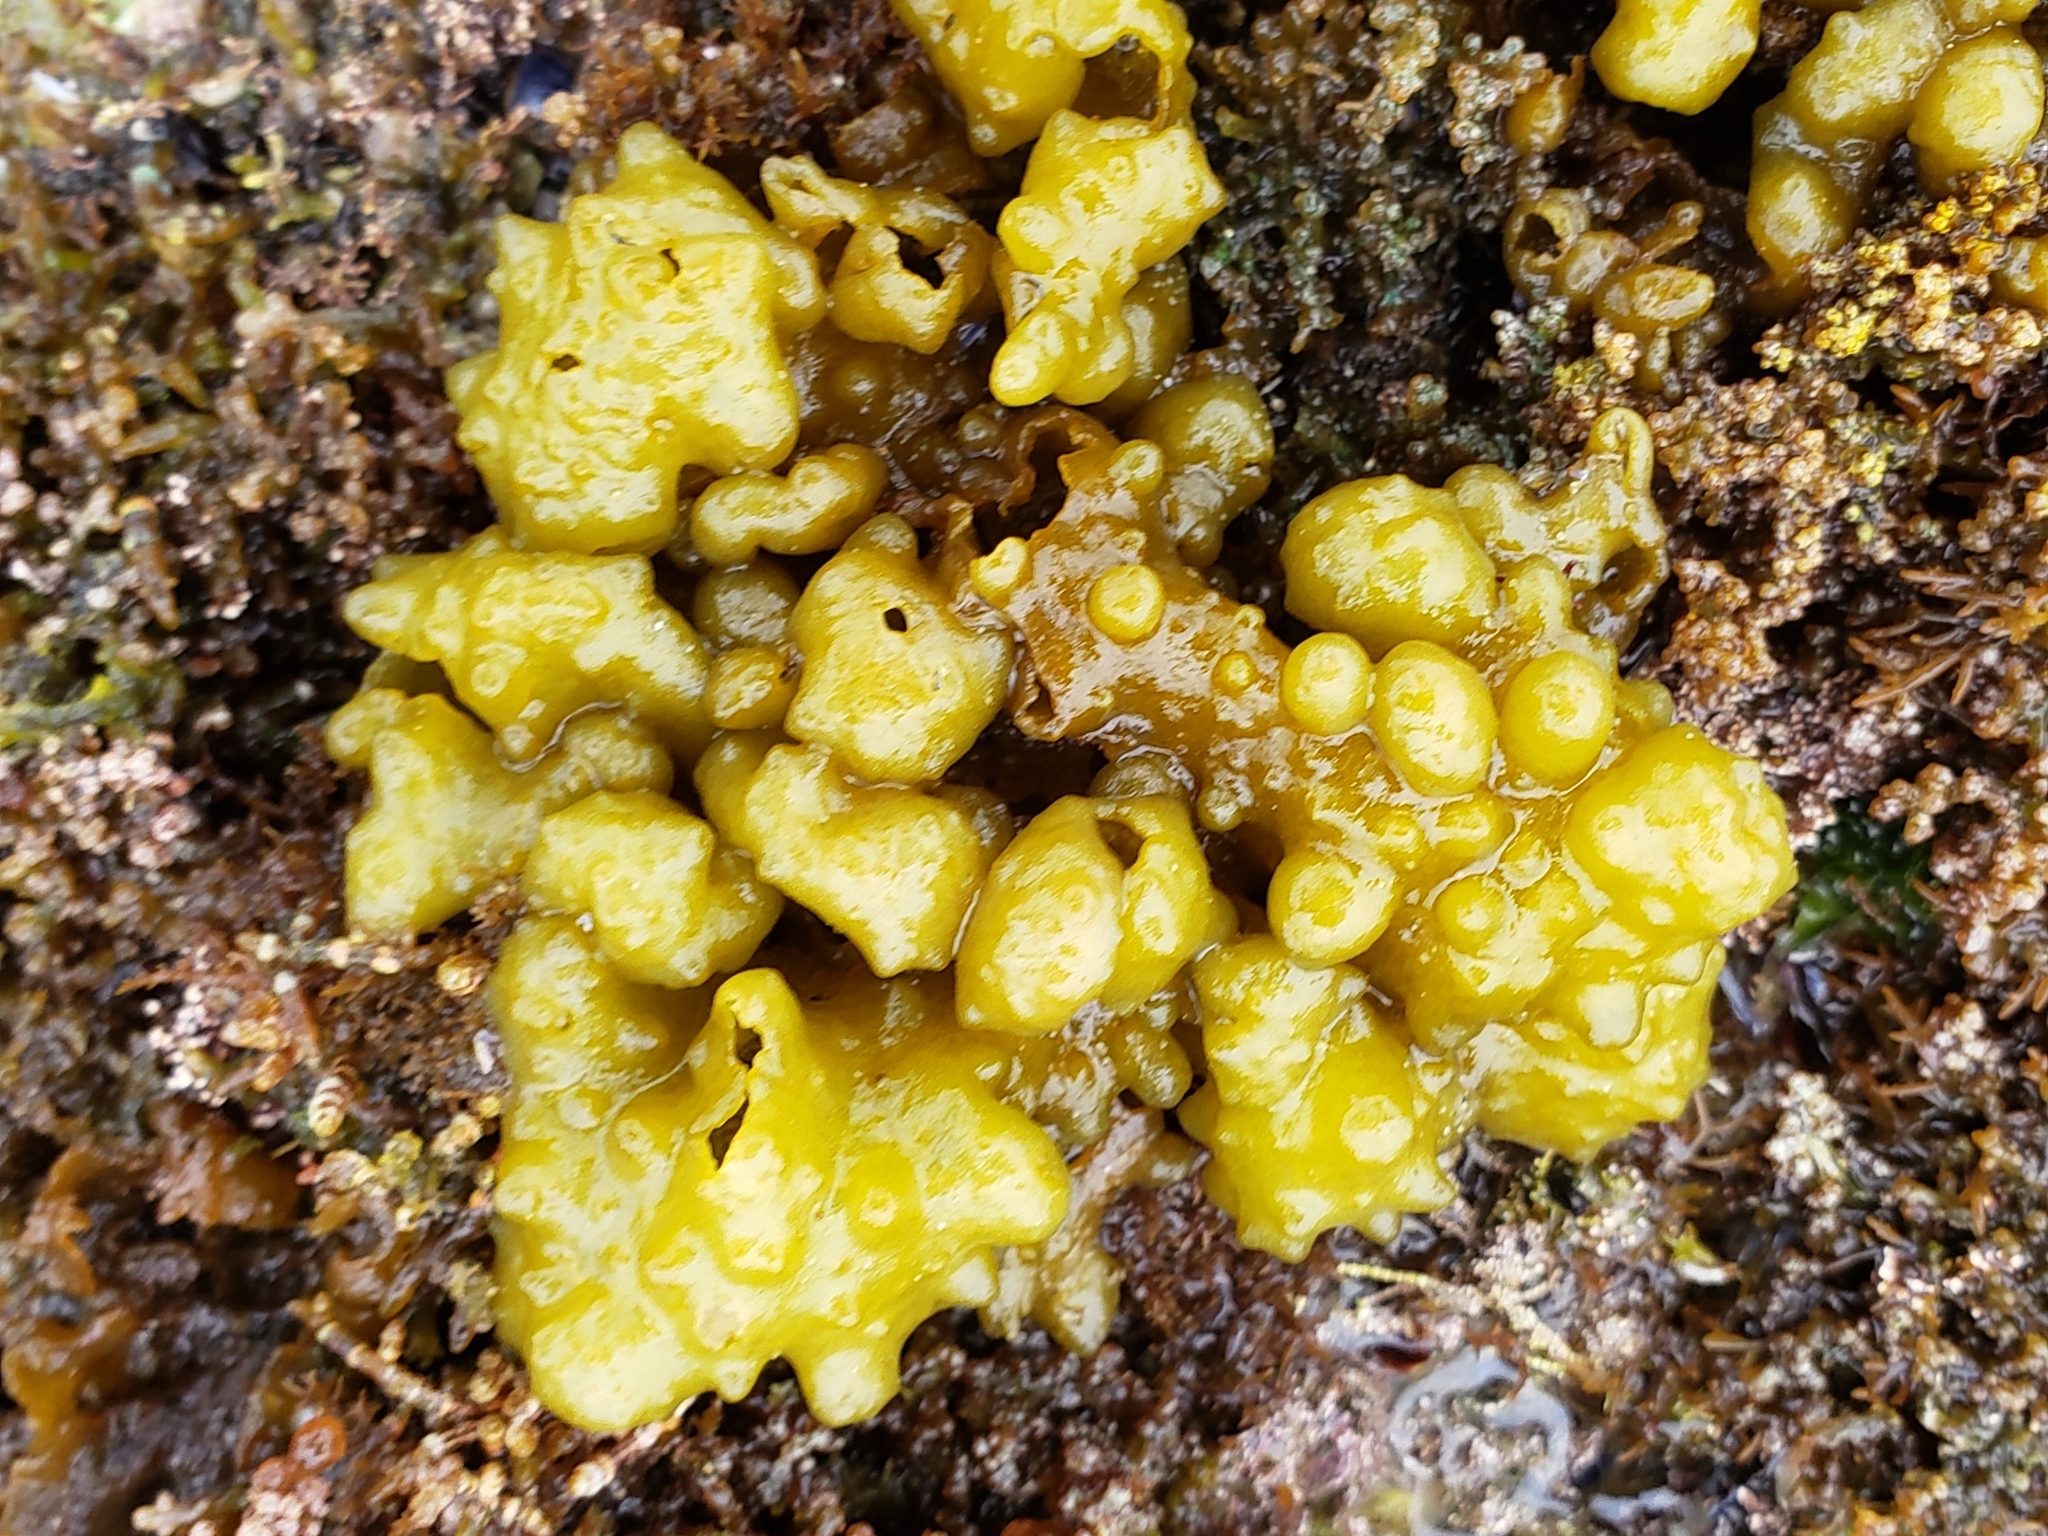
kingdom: Chromista
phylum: Ochrophyta
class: Phaeophyceae
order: Scytosiphonales
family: Scytosiphonaceae
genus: Colpomenia
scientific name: Colpomenia
